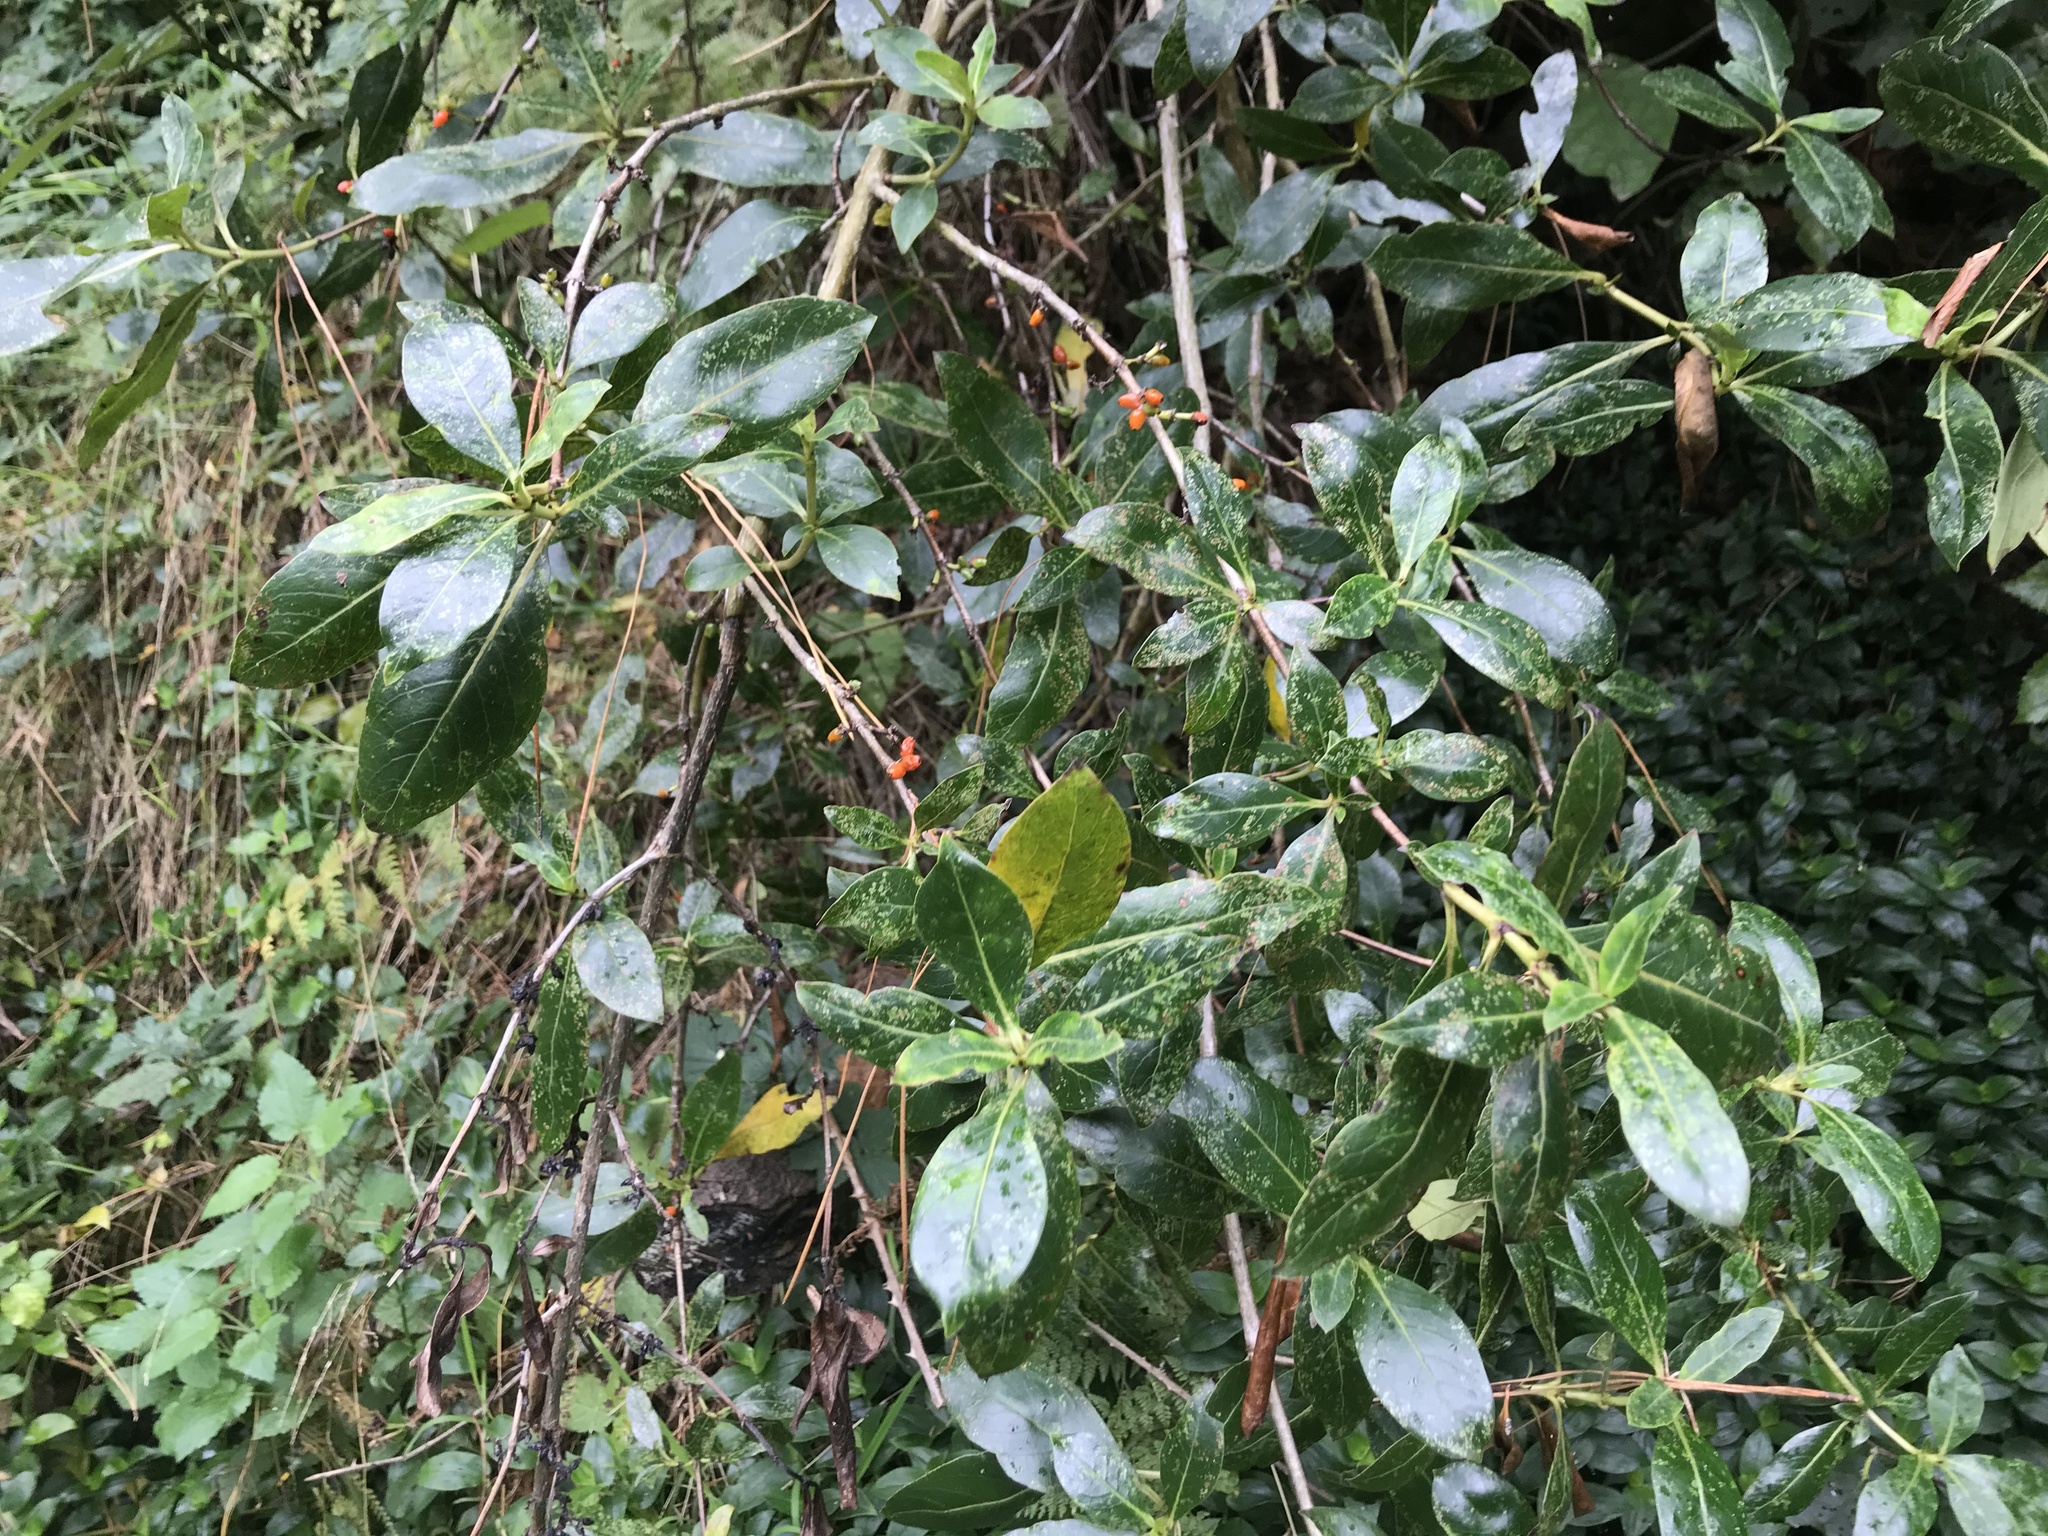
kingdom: Plantae
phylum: Tracheophyta
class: Magnoliopsida
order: Gentianales
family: Rubiaceae
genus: Coprosma
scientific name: Coprosma robusta
